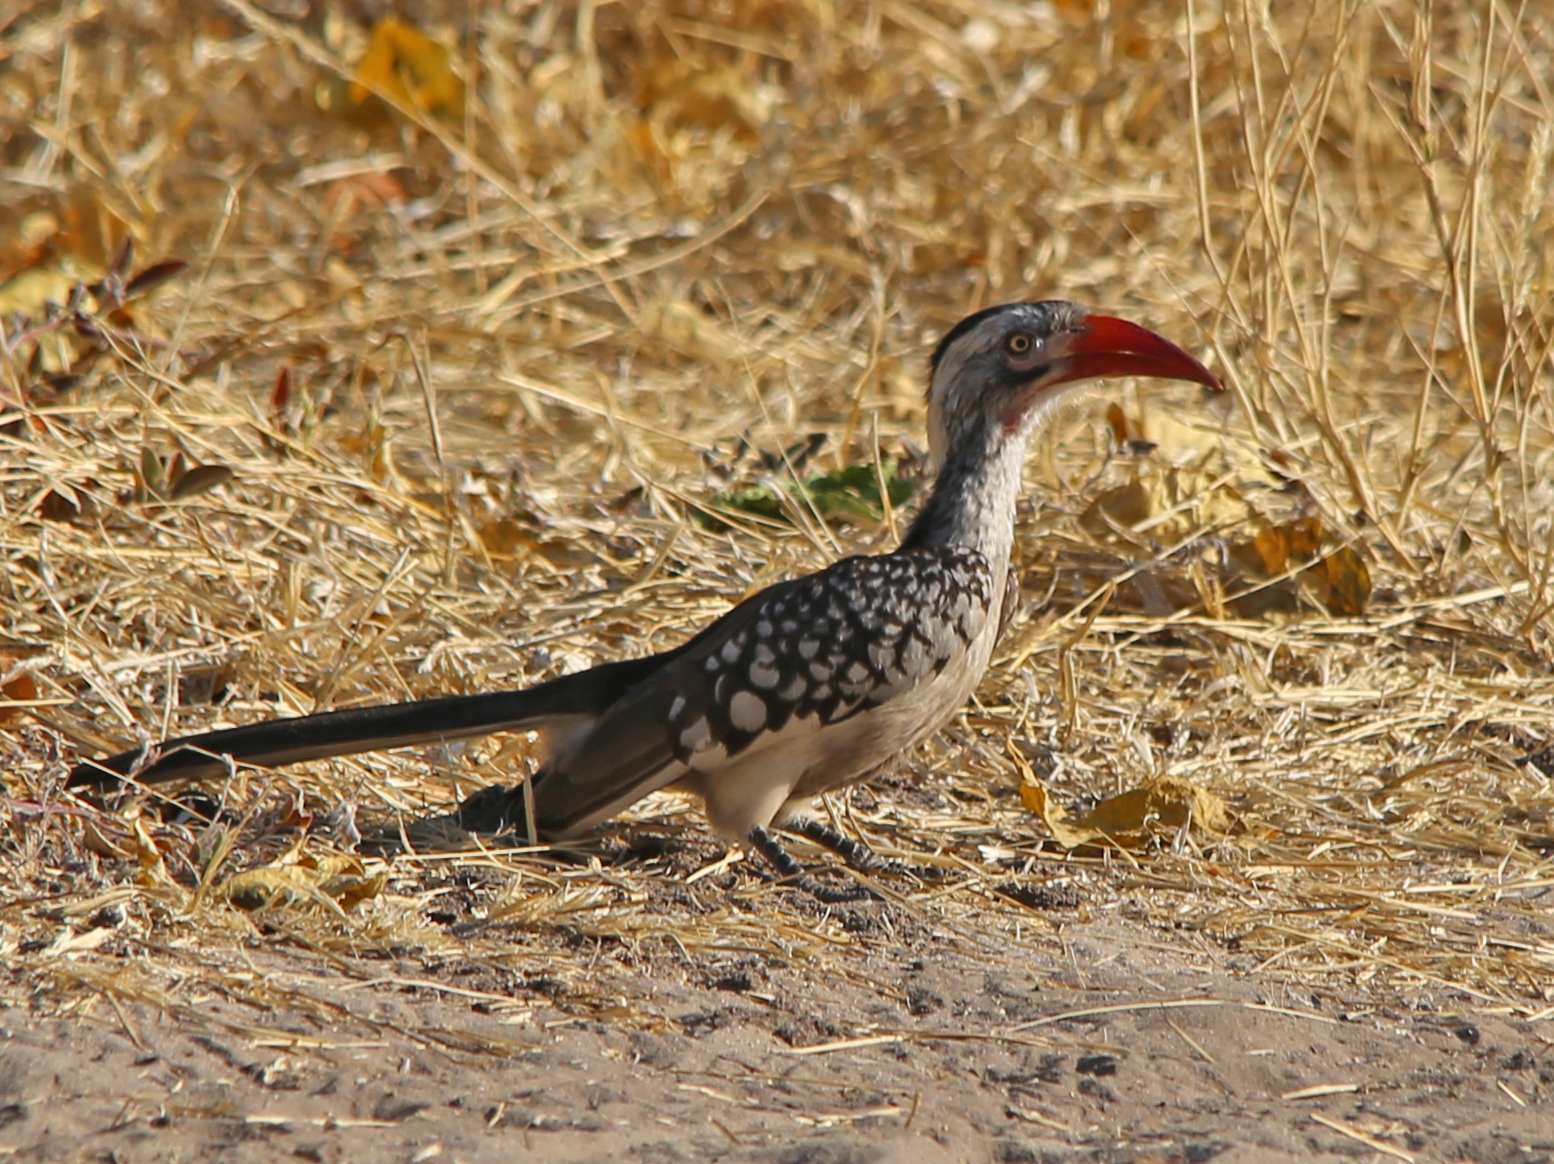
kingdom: Animalia
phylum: Chordata
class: Aves
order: Bucerotiformes
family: Bucerotidae
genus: Tockus
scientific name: Tockus rufirostris
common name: Southern red-billed hornbill
